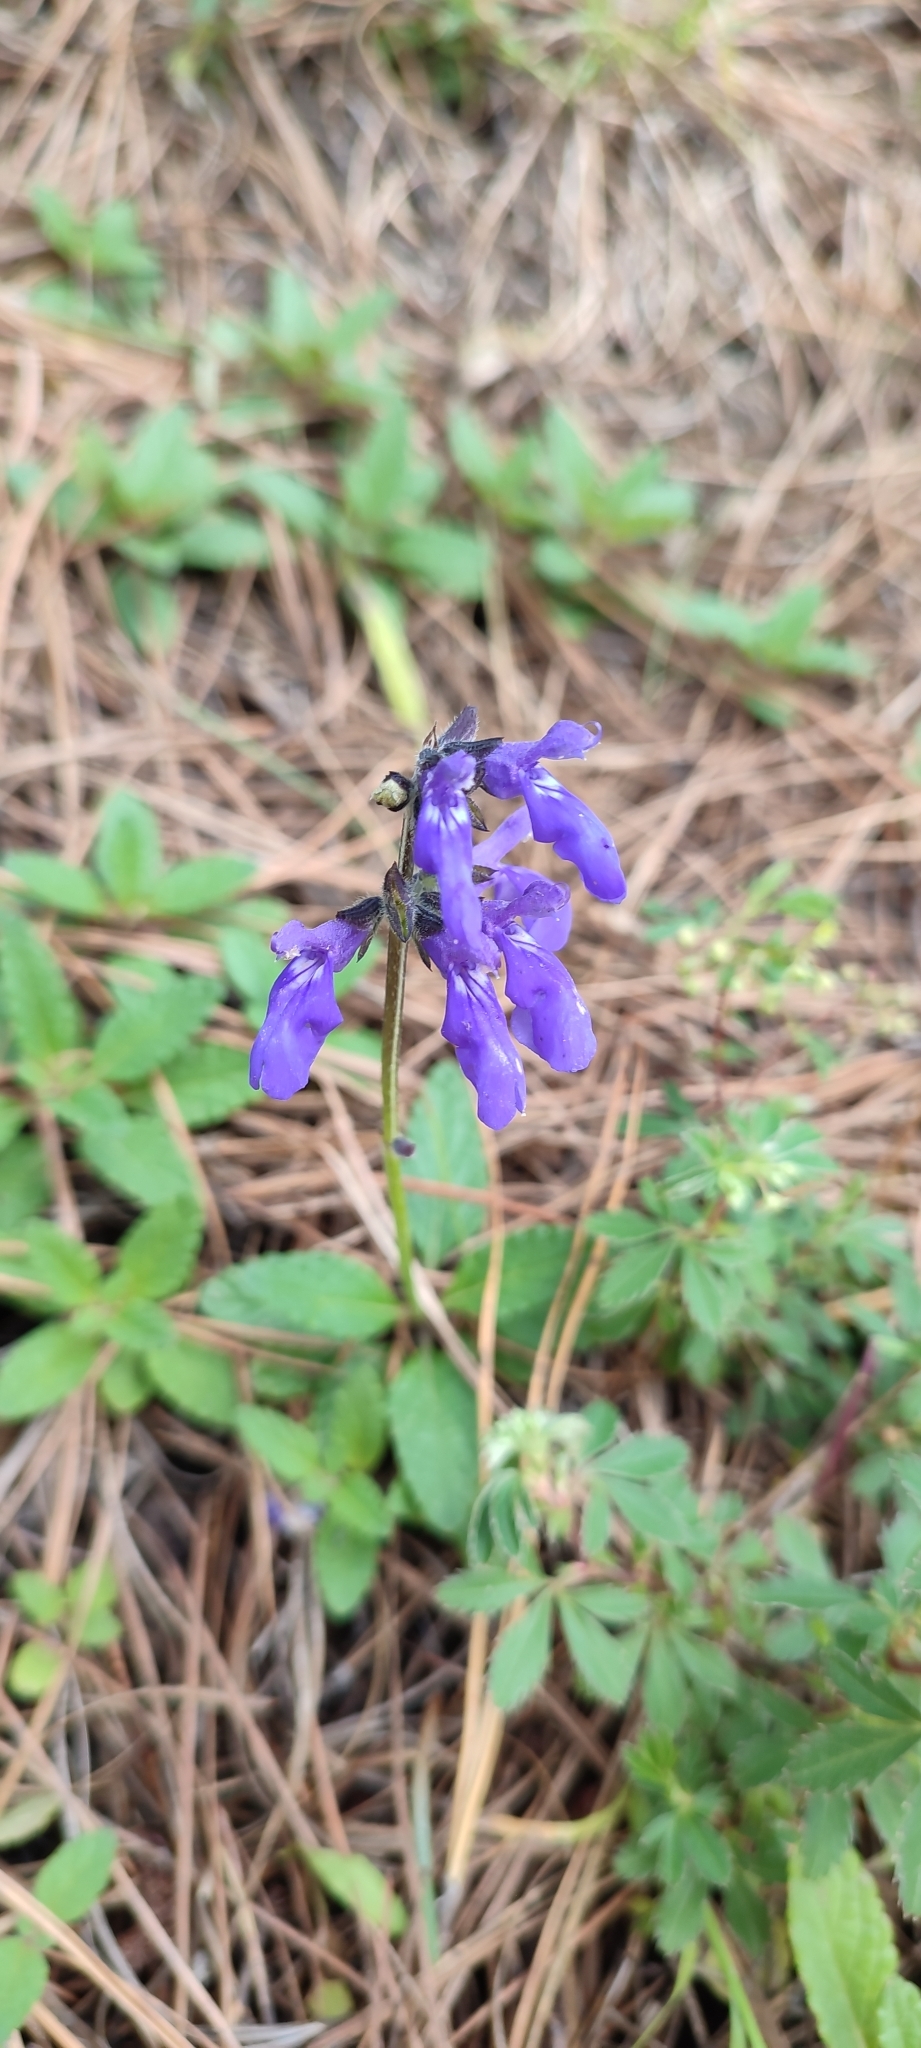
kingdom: Plantae
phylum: Tracheophyta
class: Magnoliopsida
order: Lamiales
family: Lamiaceae
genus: Salvia
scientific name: Salvia prunelloides
